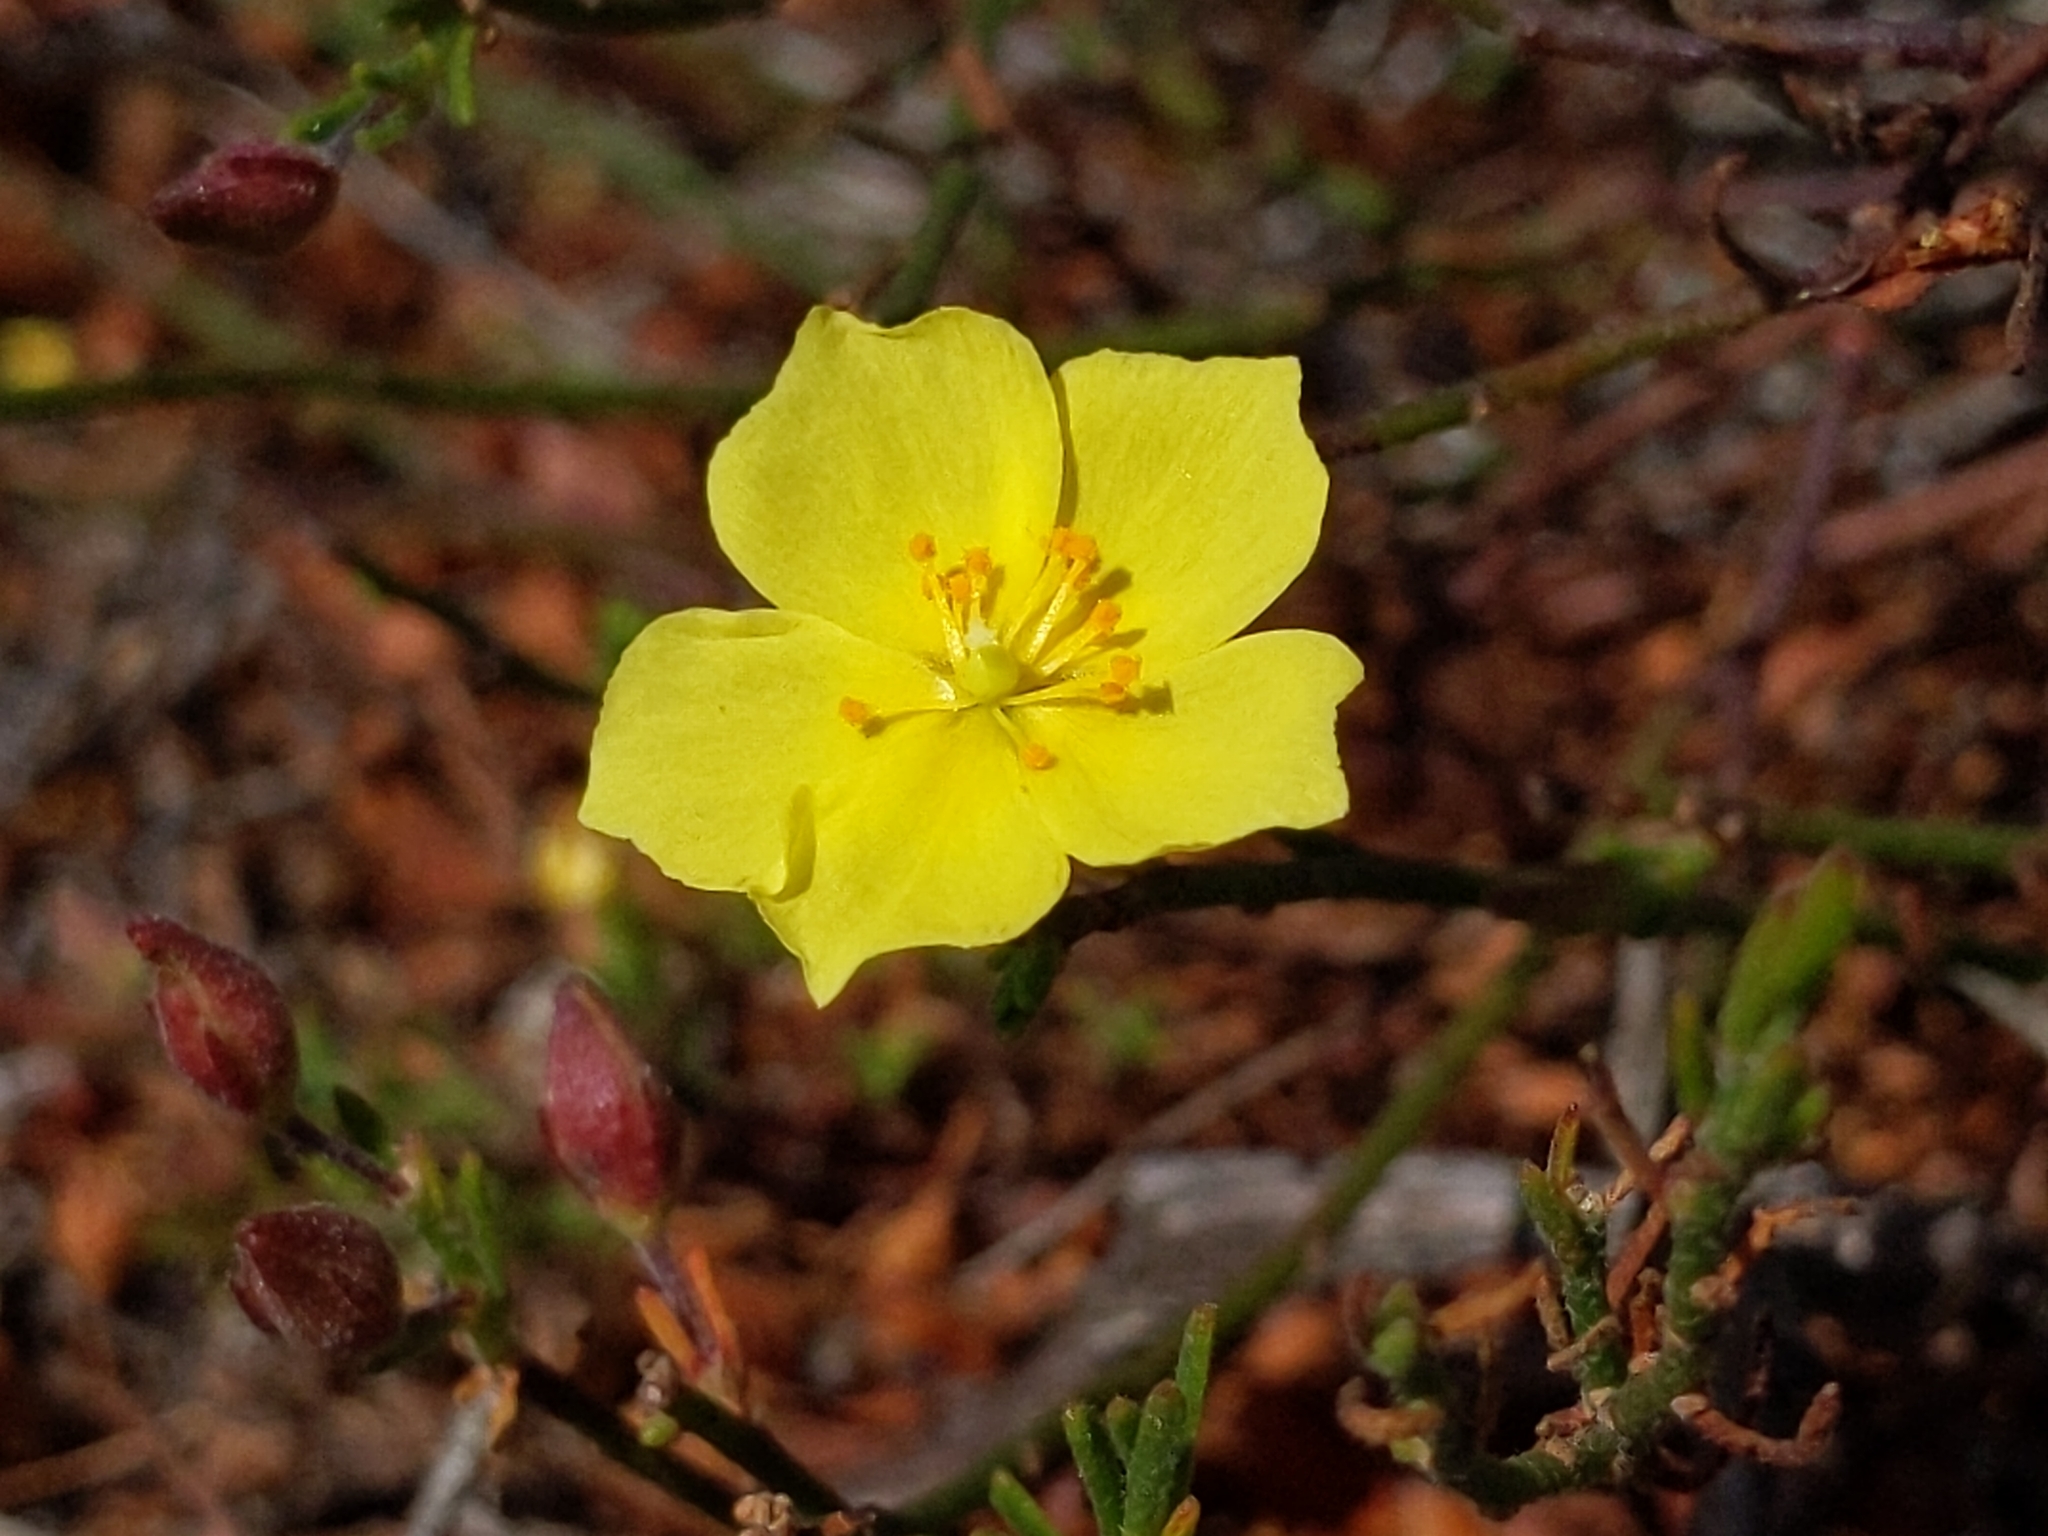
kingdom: Plantae
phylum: Tracheophyta
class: Magnoliopsida
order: Malvales
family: Cistaceae
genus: Crocanthemum
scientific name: Crocanthemum scoparium
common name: Broom-rose
